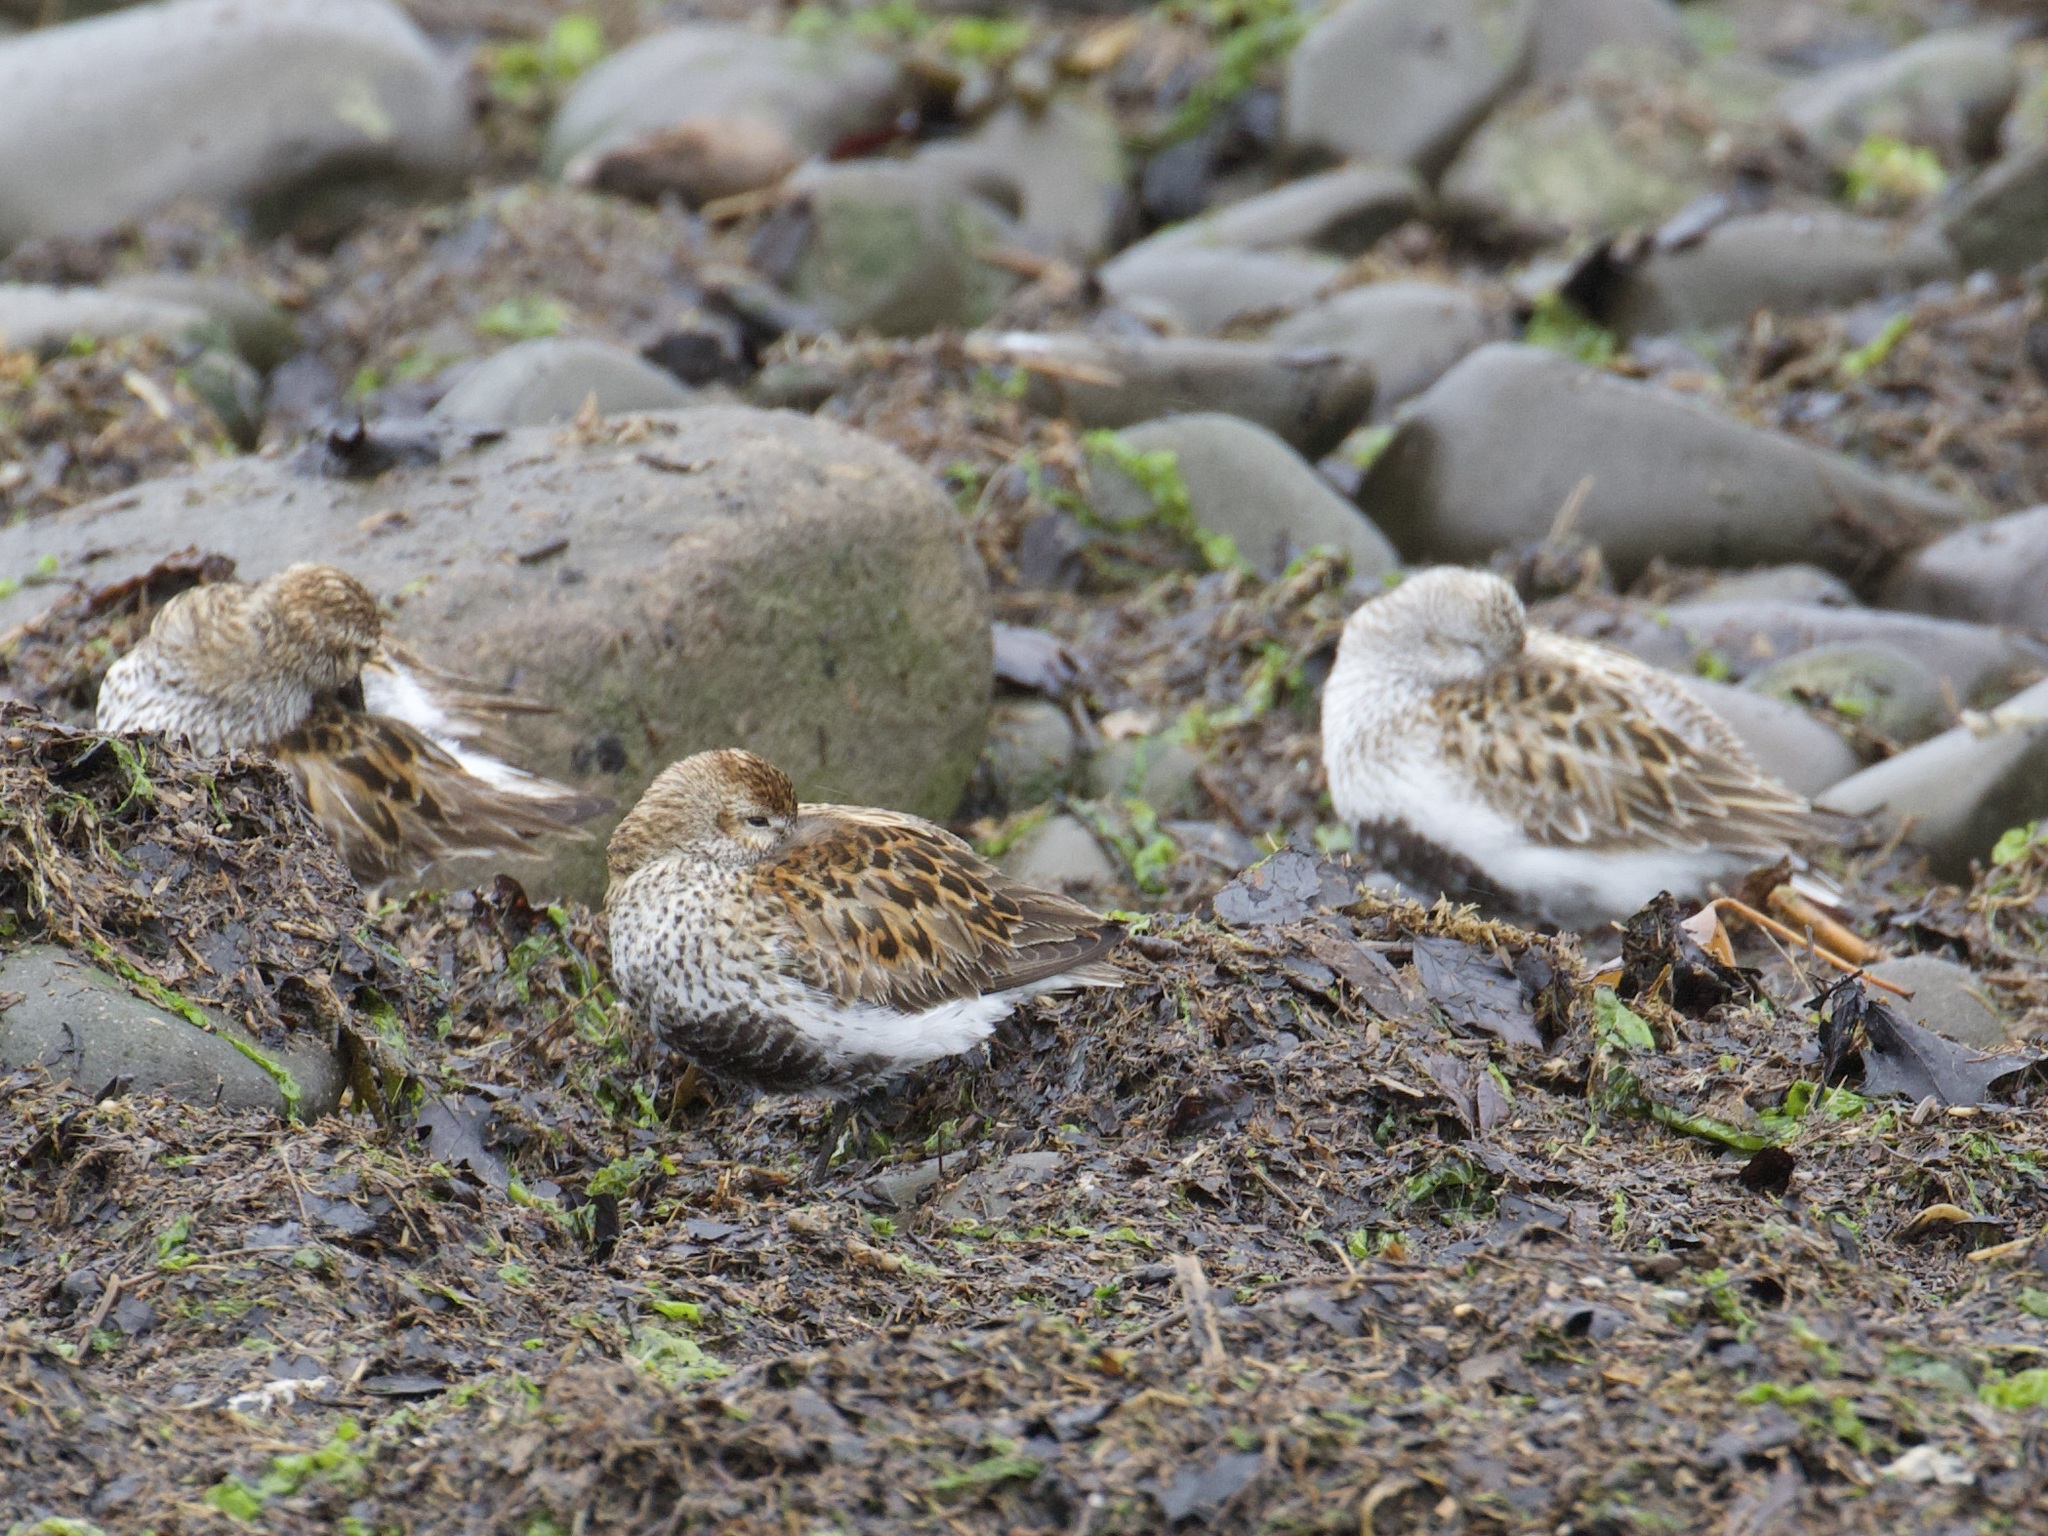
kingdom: Animalia
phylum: Chordata
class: Aves
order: Charadriiformes
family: Scolopacidae
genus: Calidris
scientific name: Calidris alpina
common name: Dunlin
